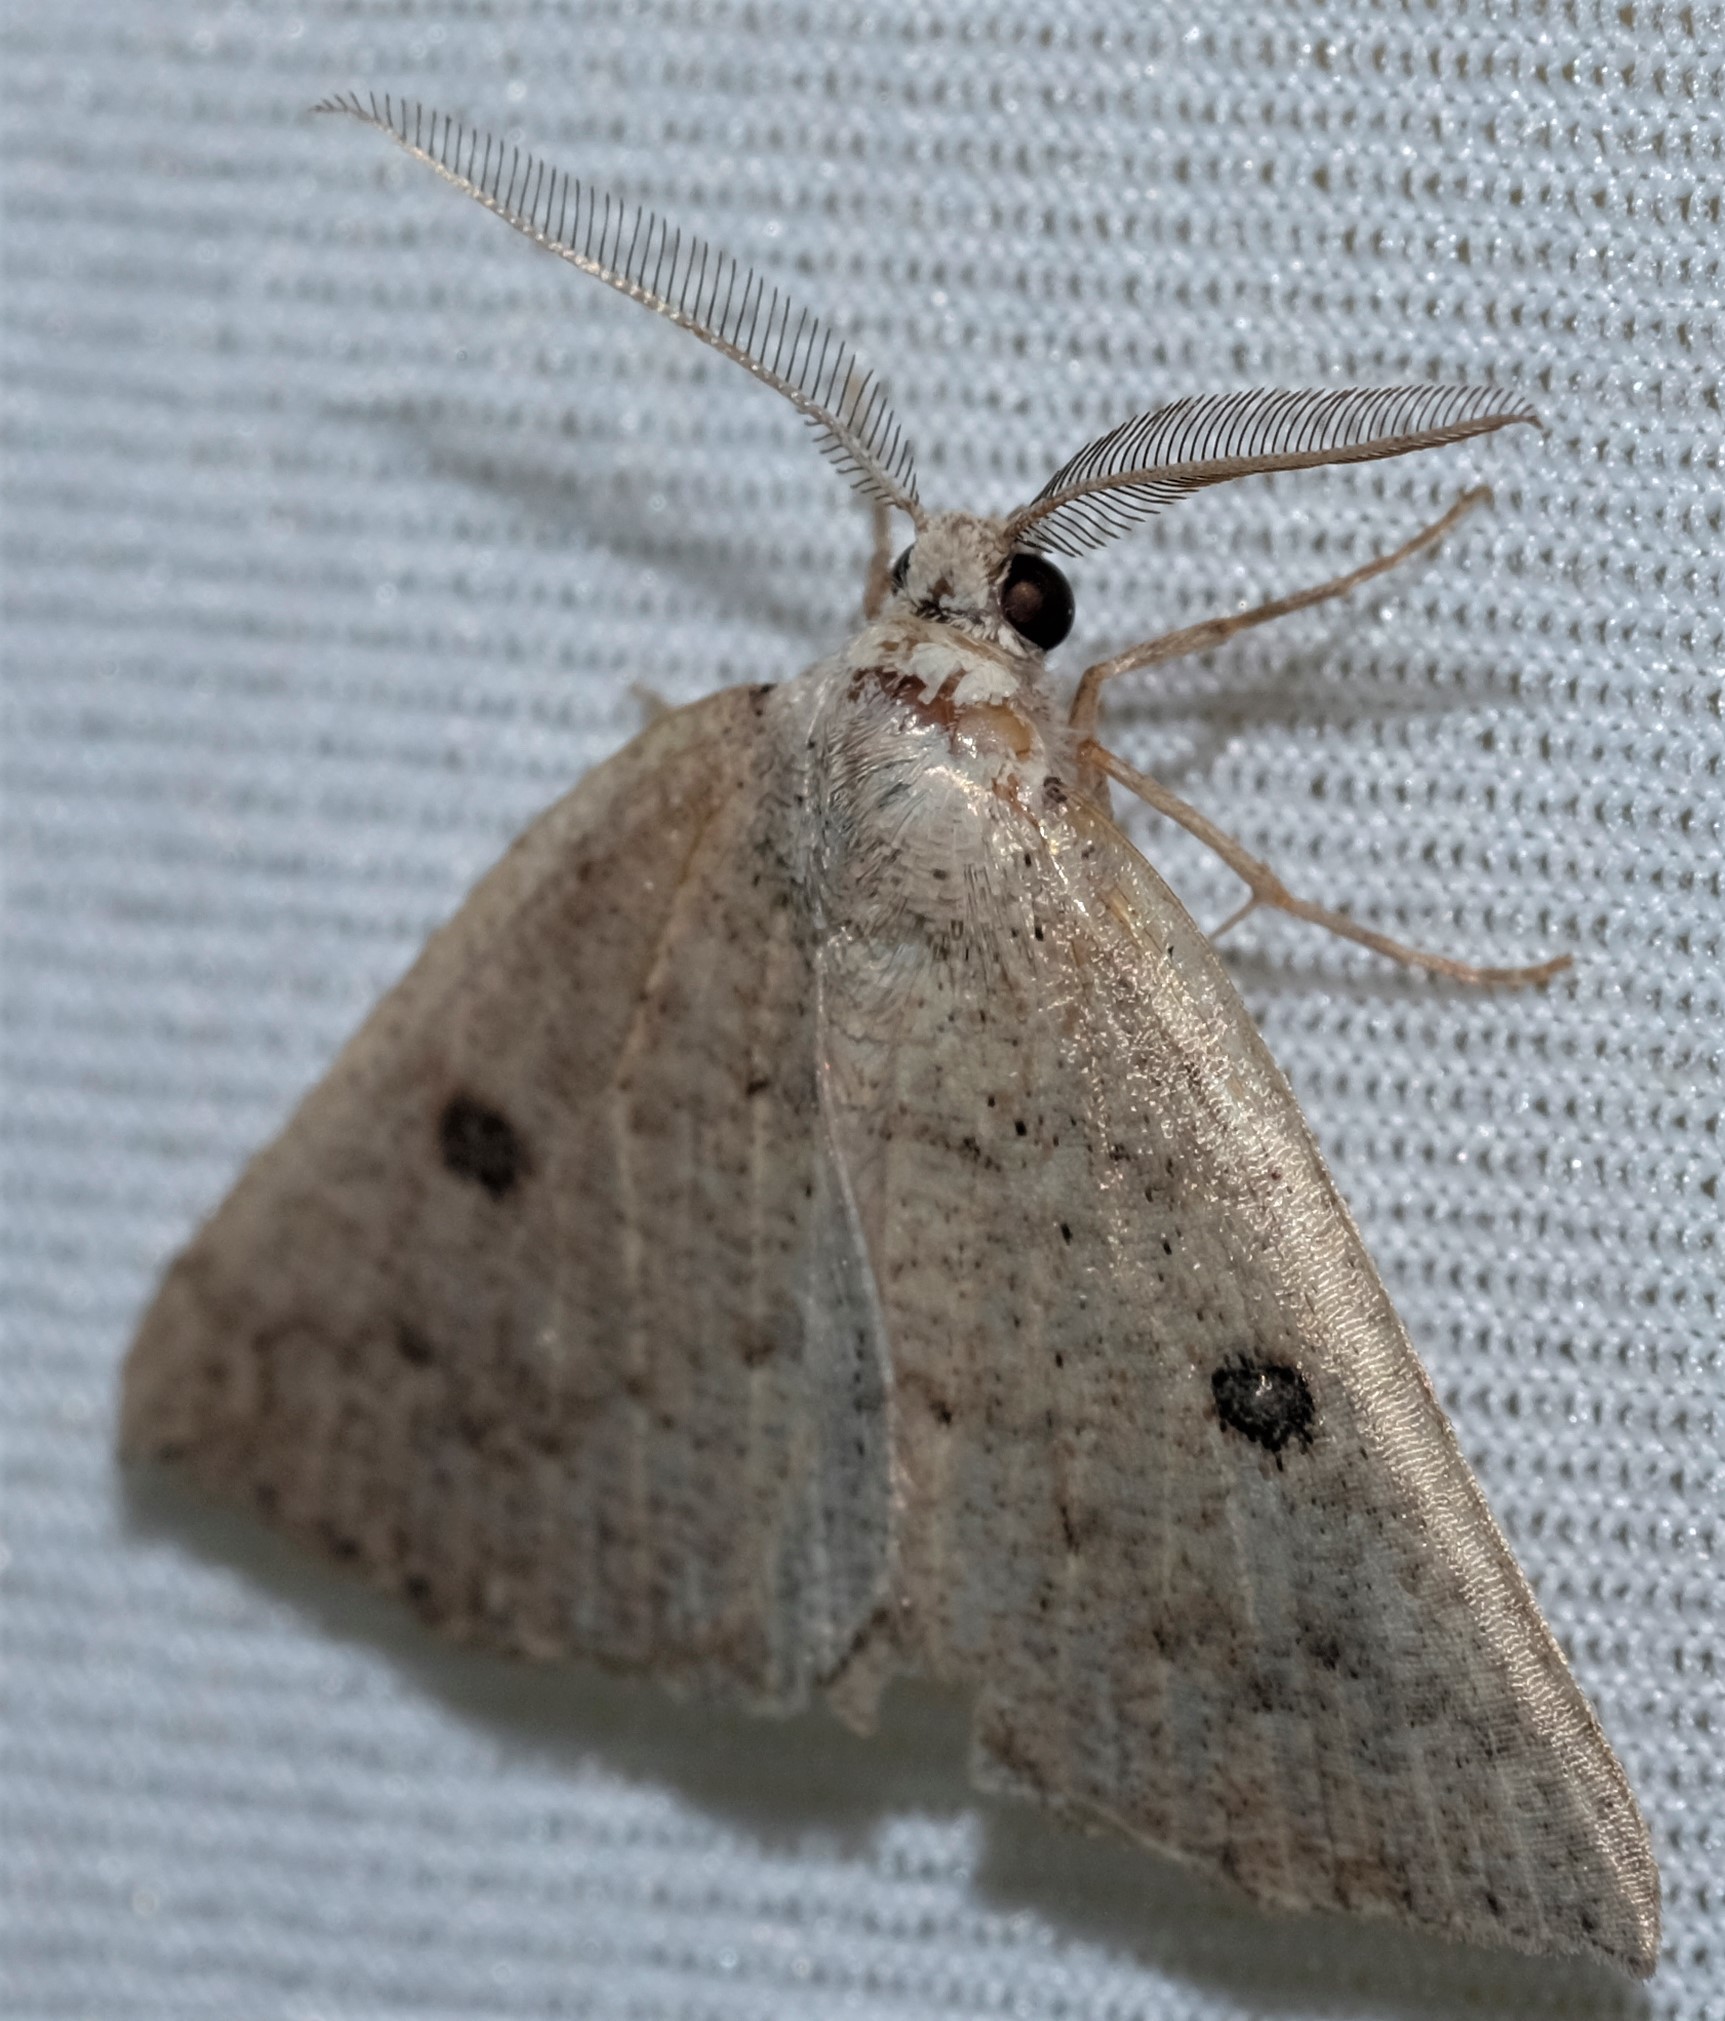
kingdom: Animalia
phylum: Arthropoda
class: Insecta
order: Lepidoptera
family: Geometridae
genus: Amelora
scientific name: Amelora demistis
